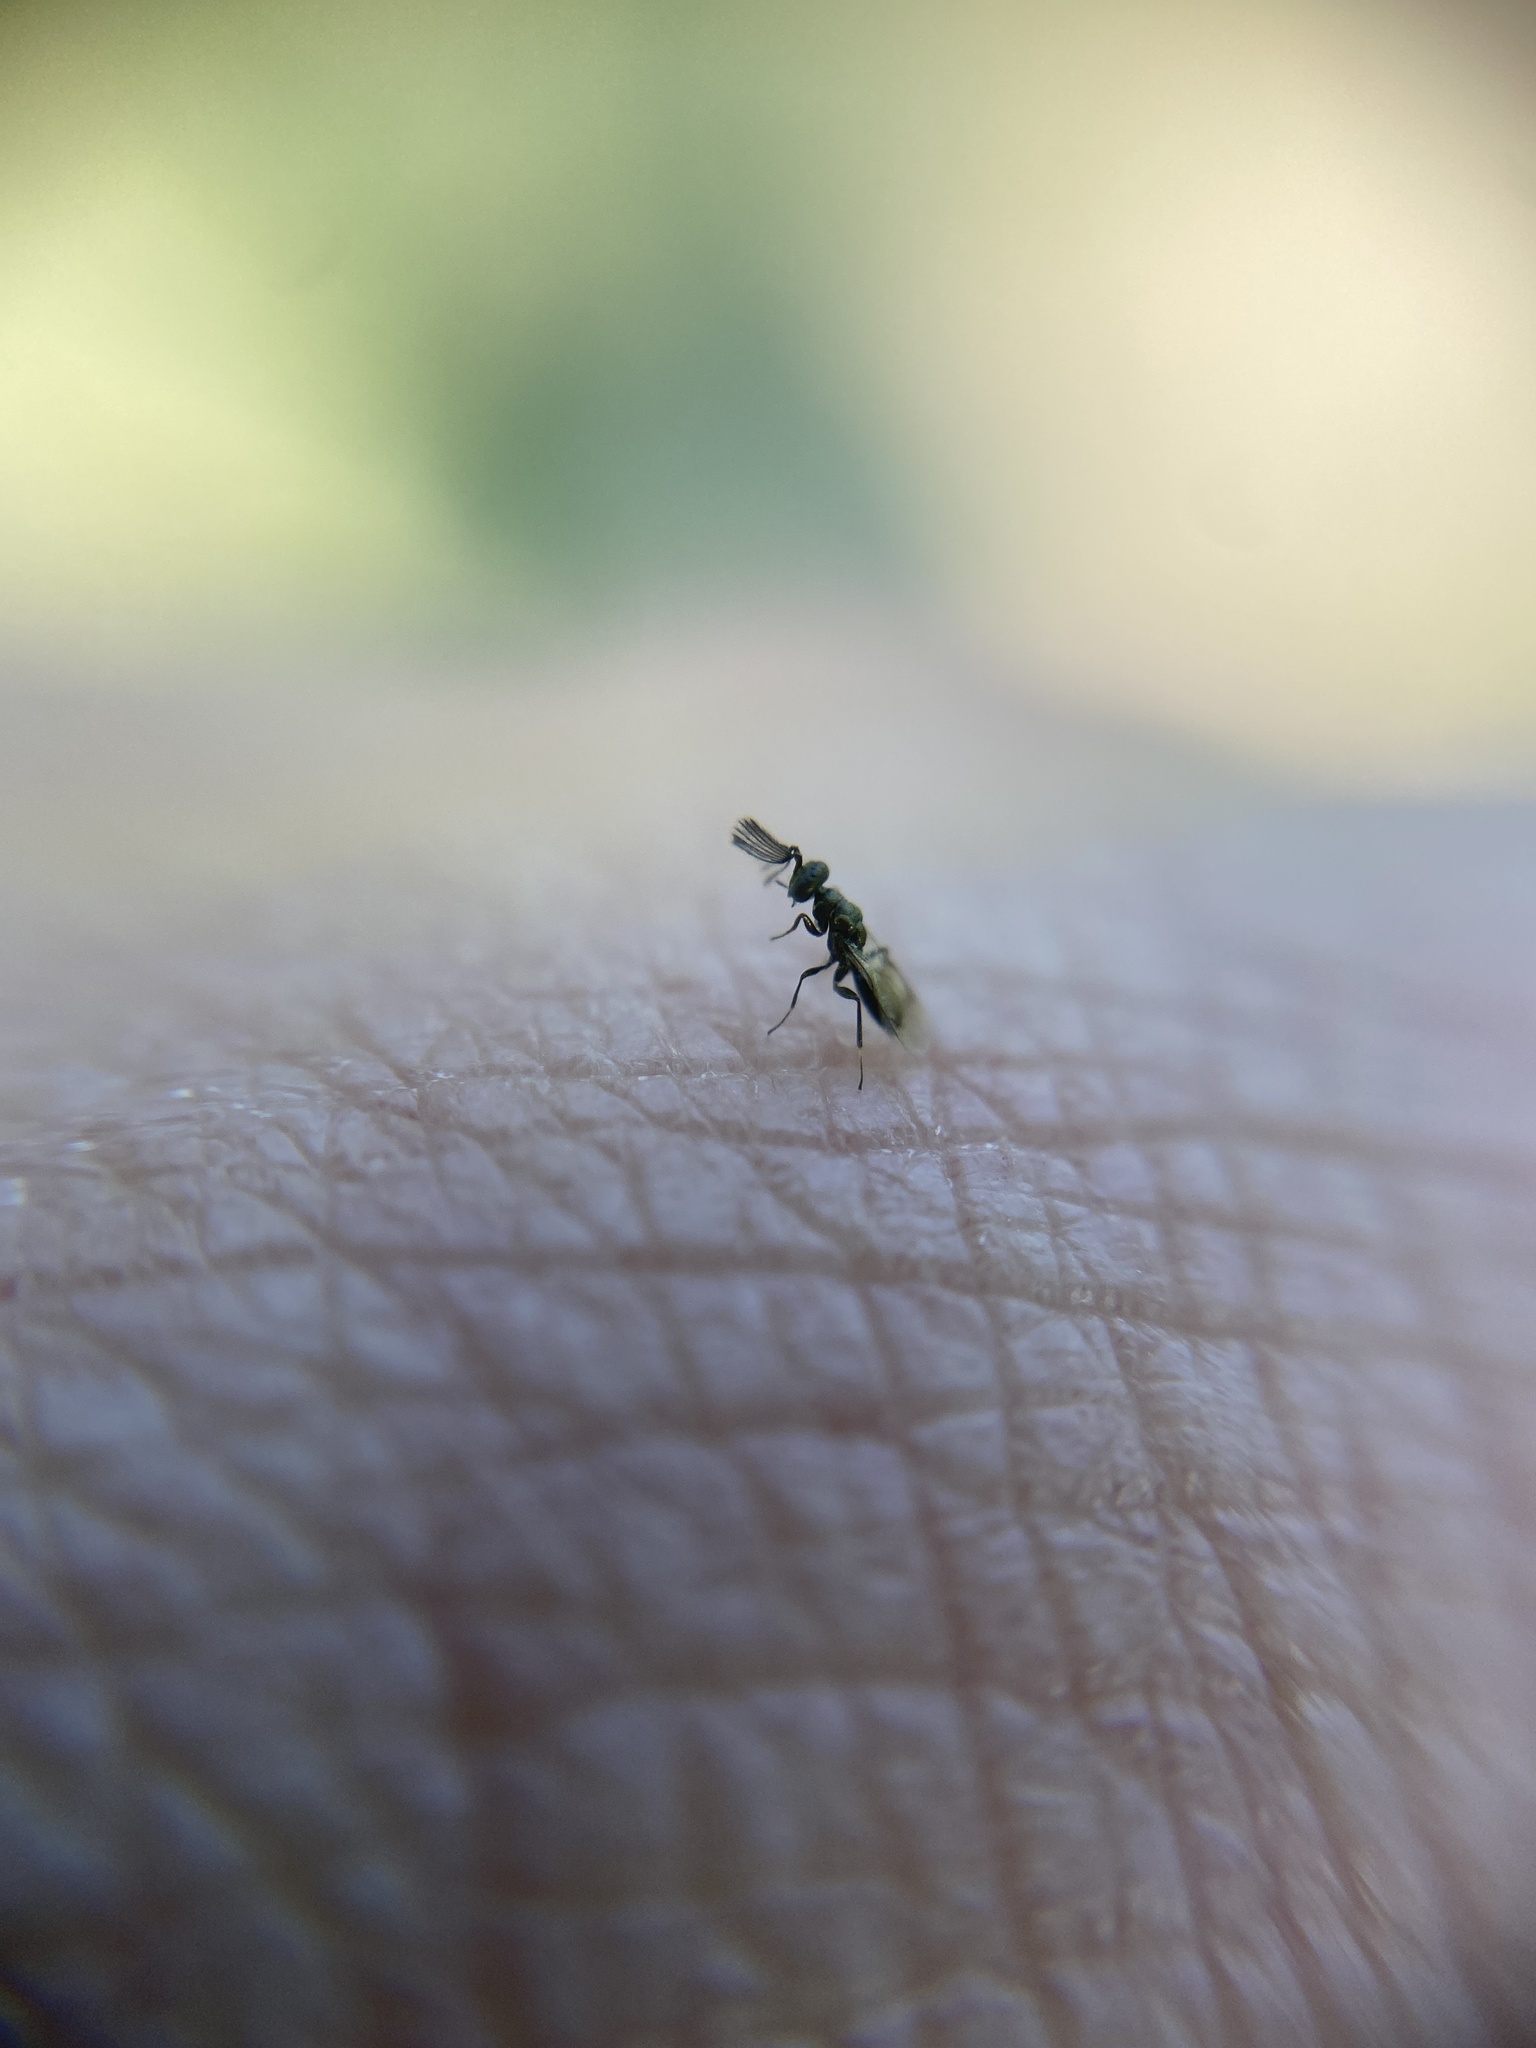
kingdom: Animalia
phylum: Arthropoda
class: Insecta
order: Hymenoptera
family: Pteromalidae
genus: Notanisus
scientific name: Notanisus sexramosus
